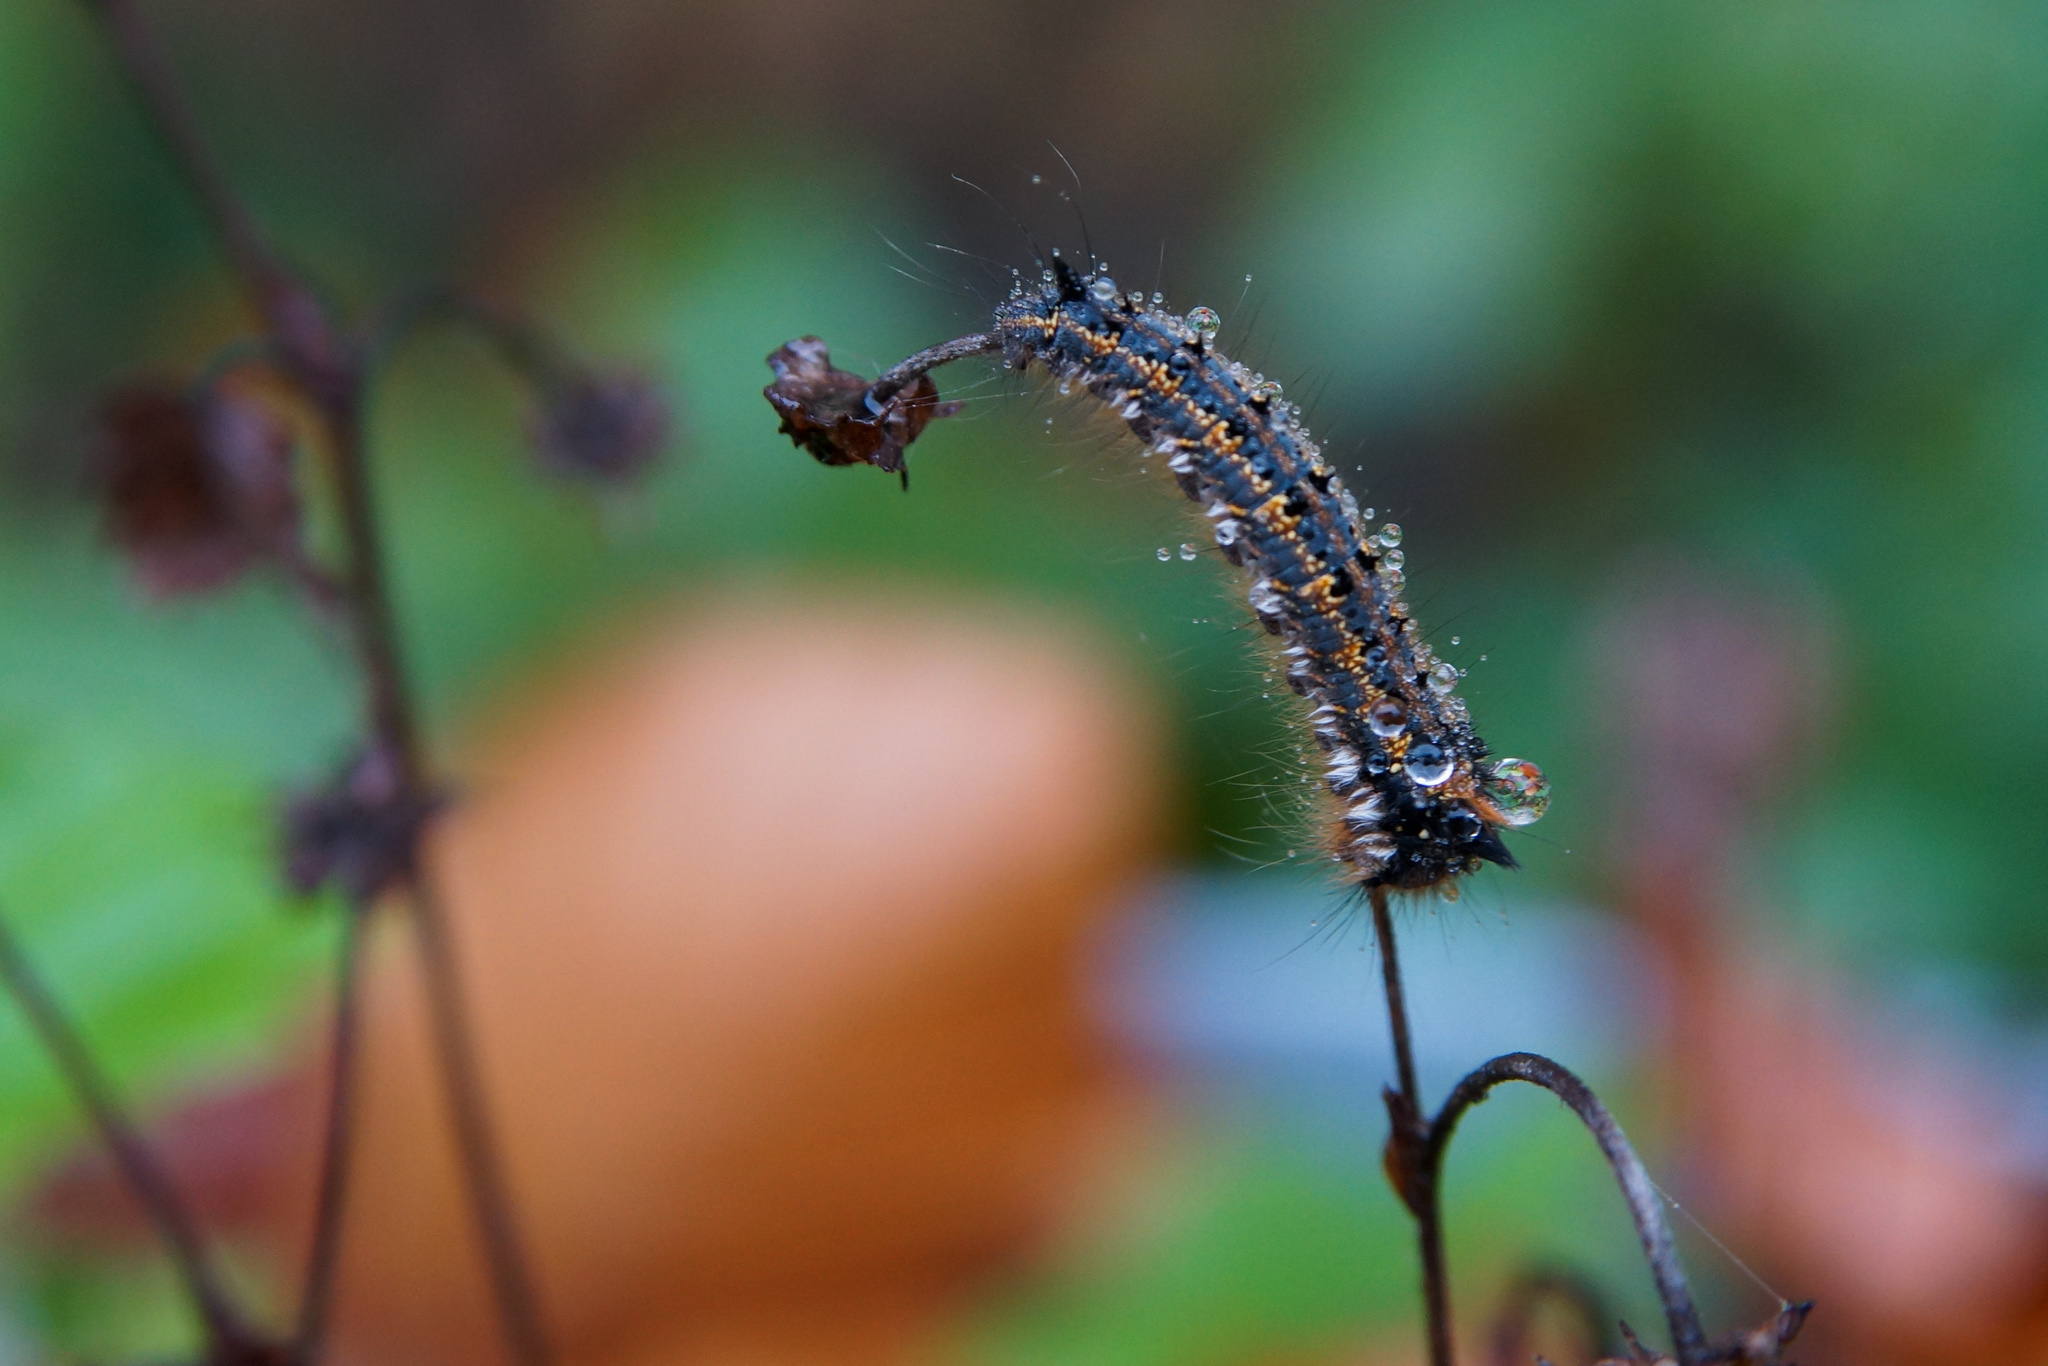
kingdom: Animalia
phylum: Arthropoda
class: Insecta
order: Lepidoptera
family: Lasiocampidae
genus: Euthrix
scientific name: Euthrix potatoria
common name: Drinker
